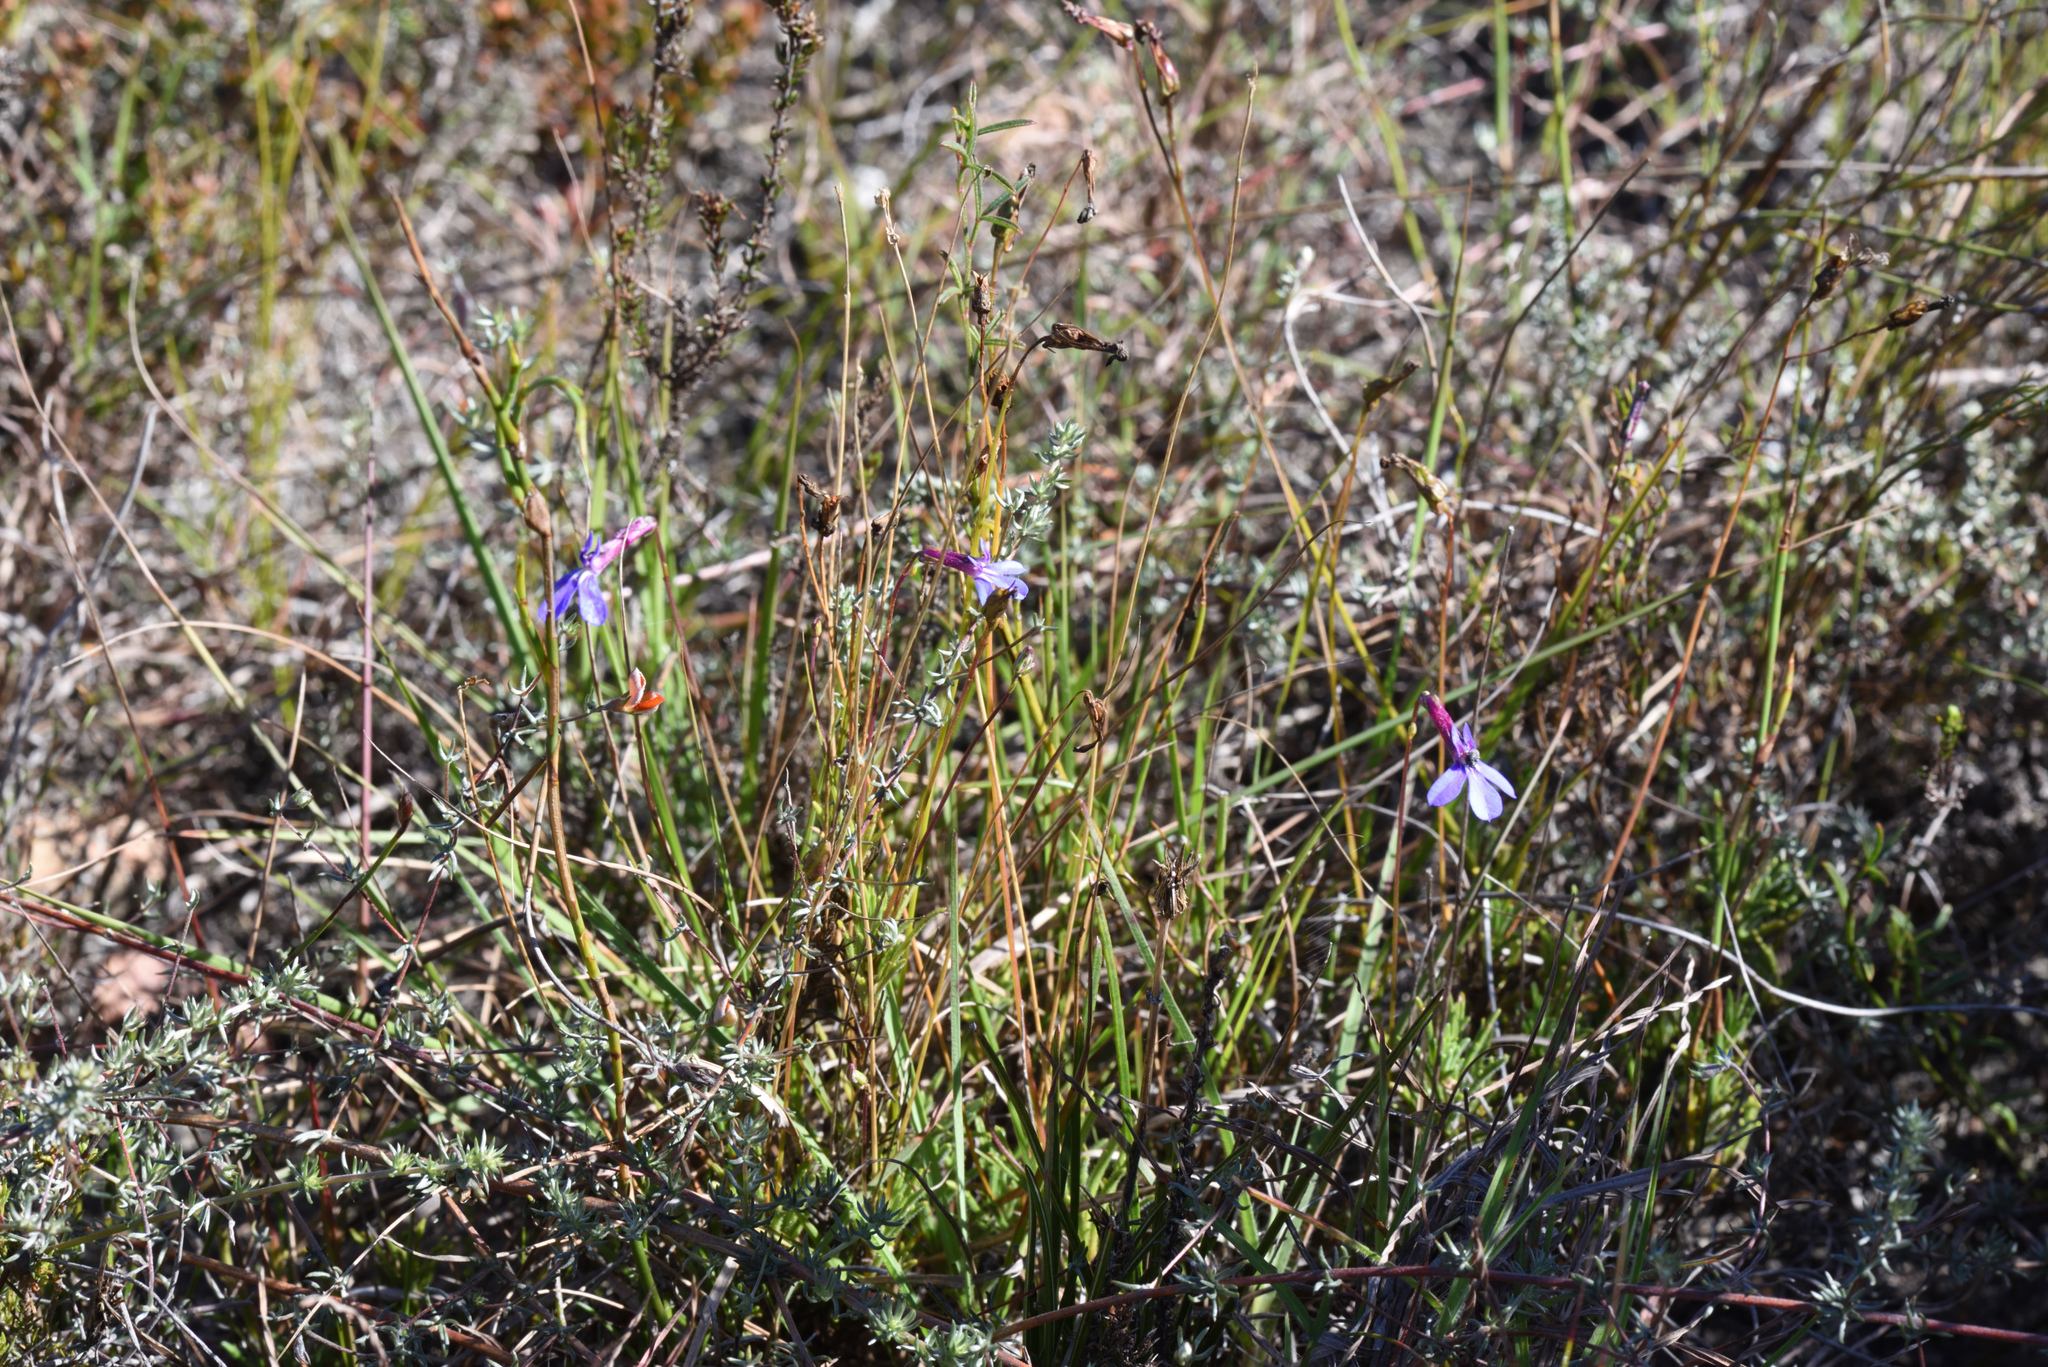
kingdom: Plantae
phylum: Tracheophyta
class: Magnoliopsida
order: Asterales
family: Campanulaceae
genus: Lobelia
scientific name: Lobelia tomentosa
